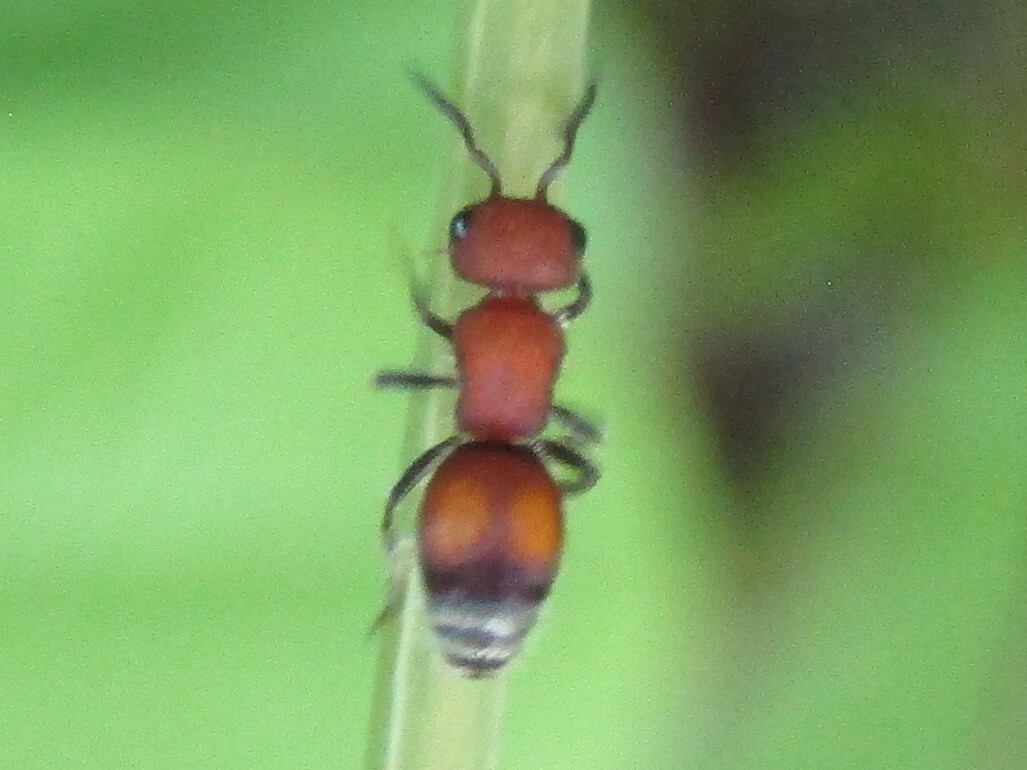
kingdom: Animalia
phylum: Arthropoda
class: Insecta
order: Hymenoptera
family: Mutillidae
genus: Pseudomethoca
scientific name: Pseudomethoca
